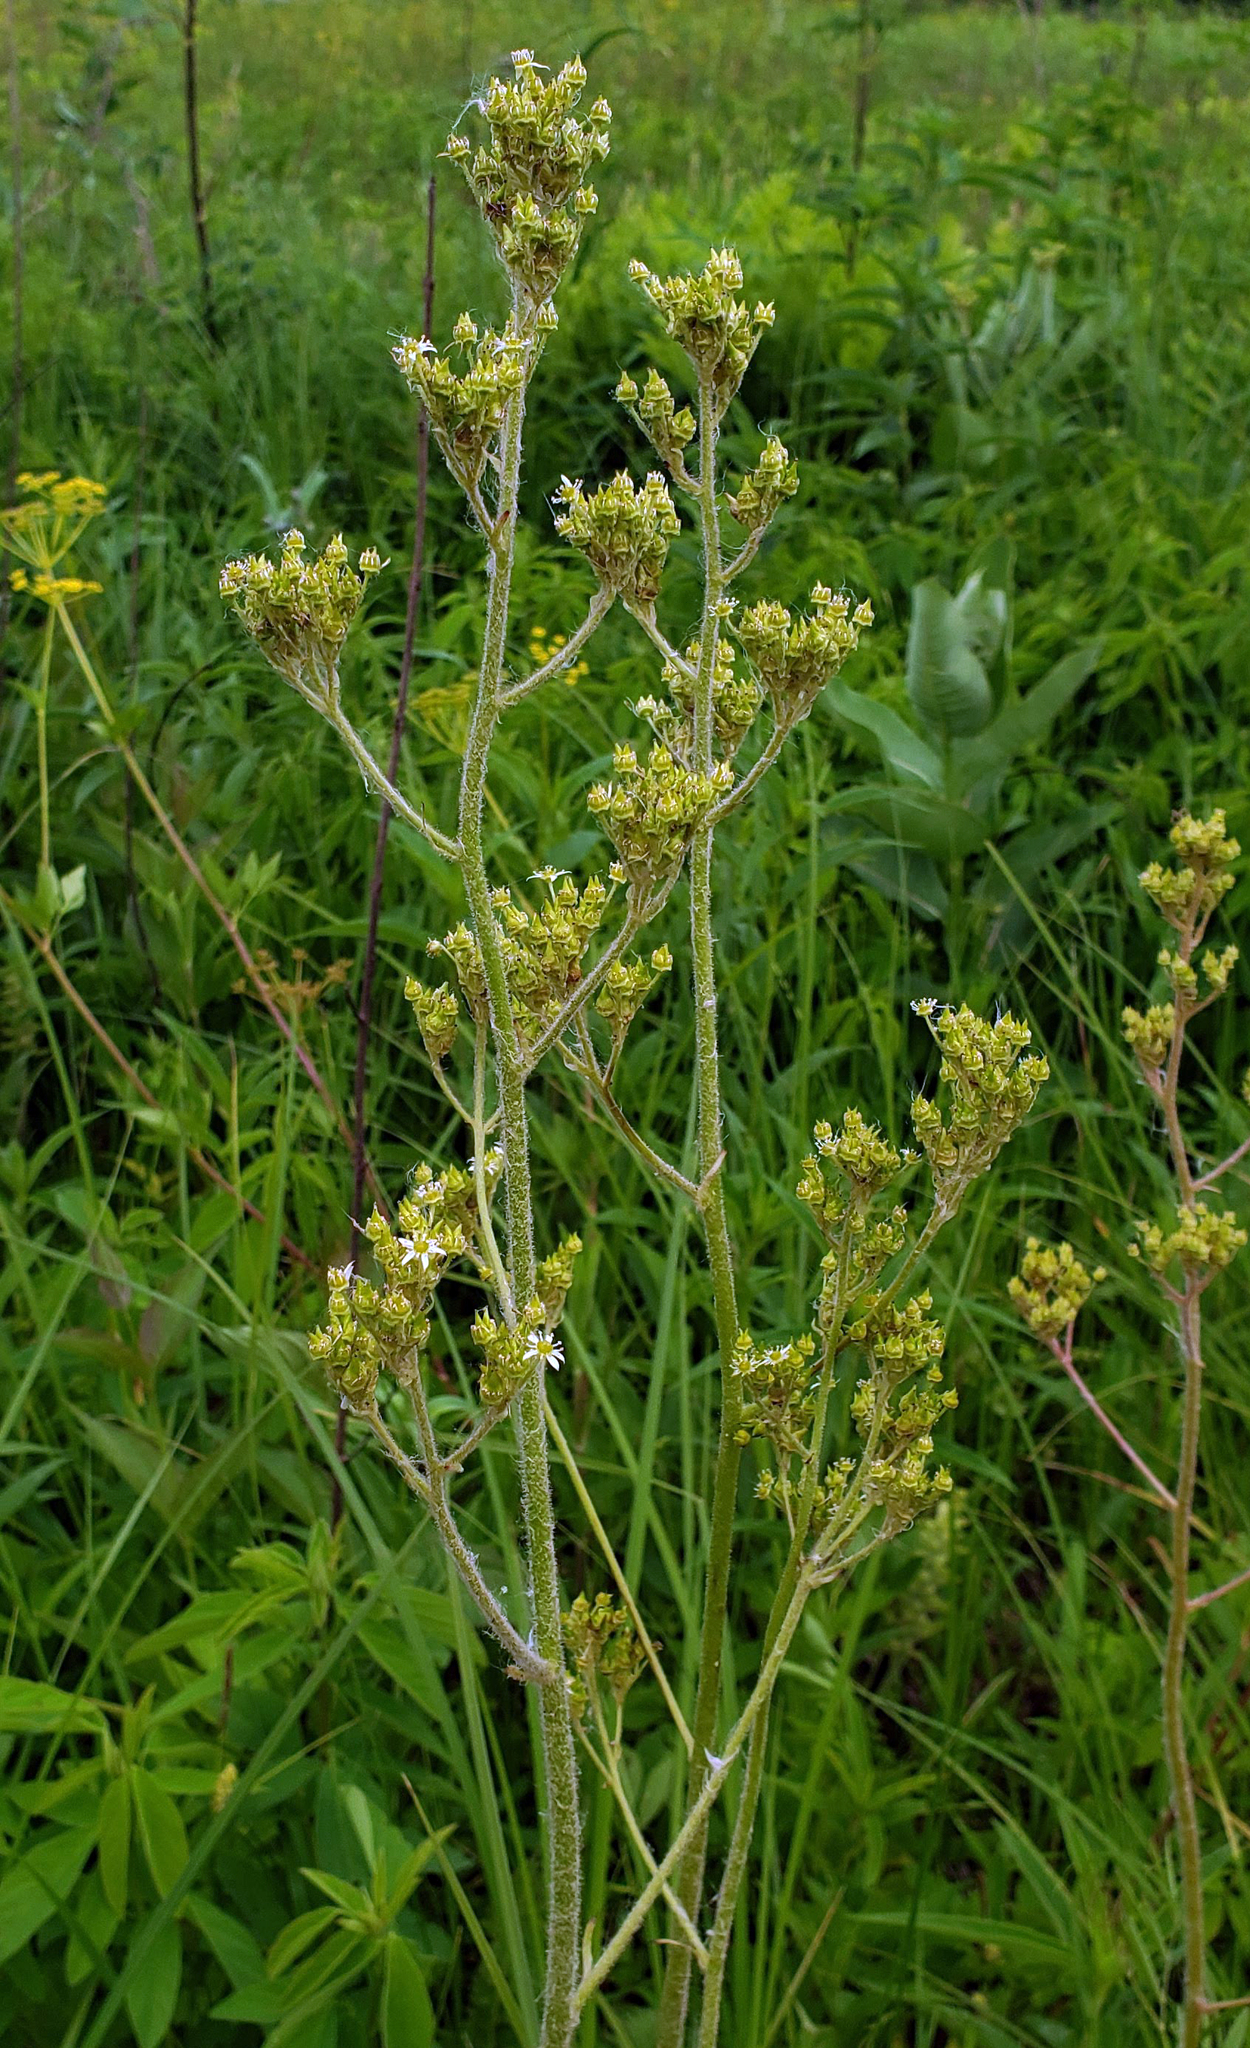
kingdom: Plantae
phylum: Tracheophyta
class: Magnoliopsida
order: Saxifragales
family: Saxifragaceae
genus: Micranthes
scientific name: Micranthes pensylvanica
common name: Marsh saxifrage
